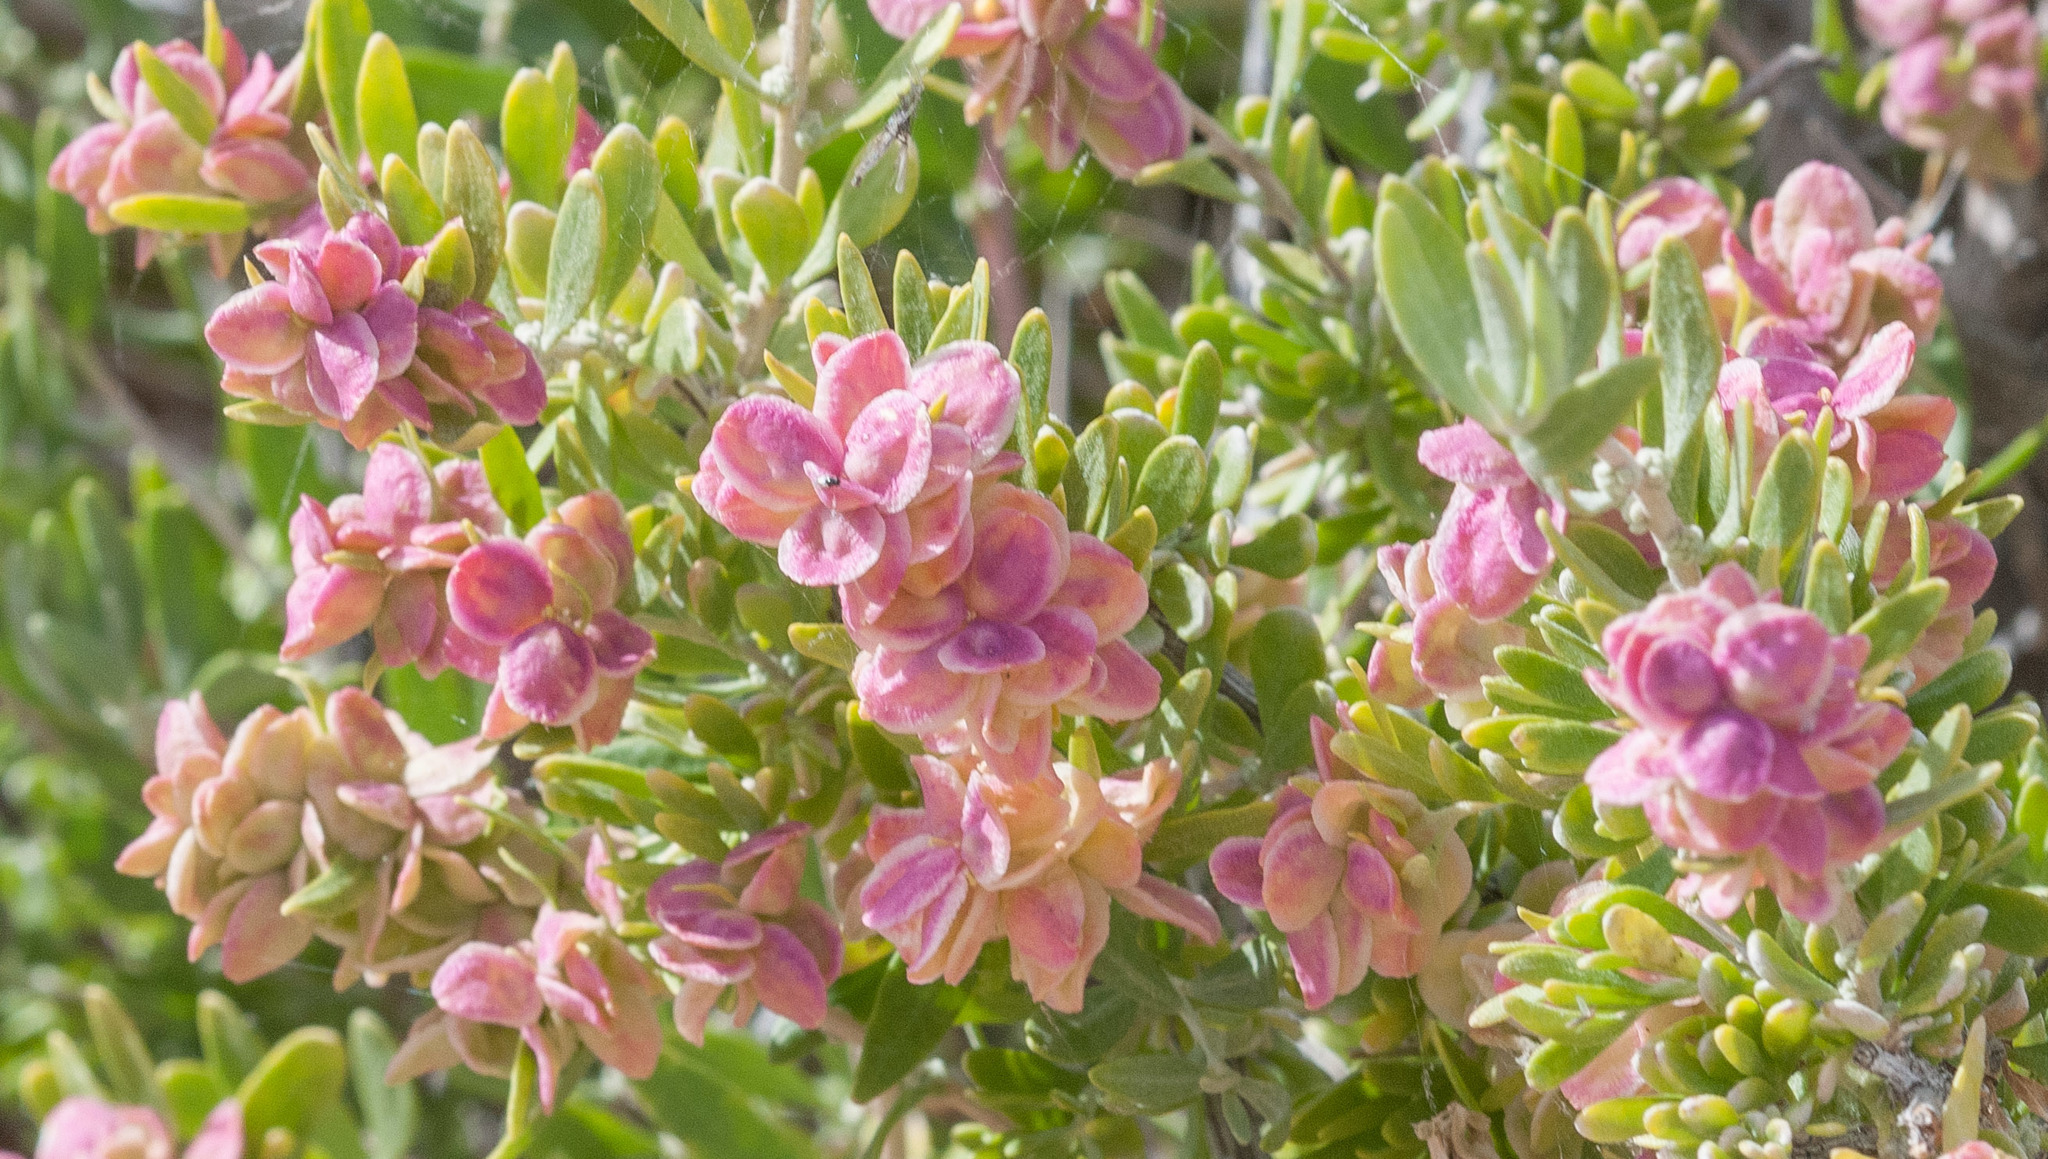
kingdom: Plantae
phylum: Tracheophyta
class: Magnoliopsida
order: Caryophyllales
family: Amaranthaceae
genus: Grayia
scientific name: Grayia spinosa
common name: Spiny hopsage
